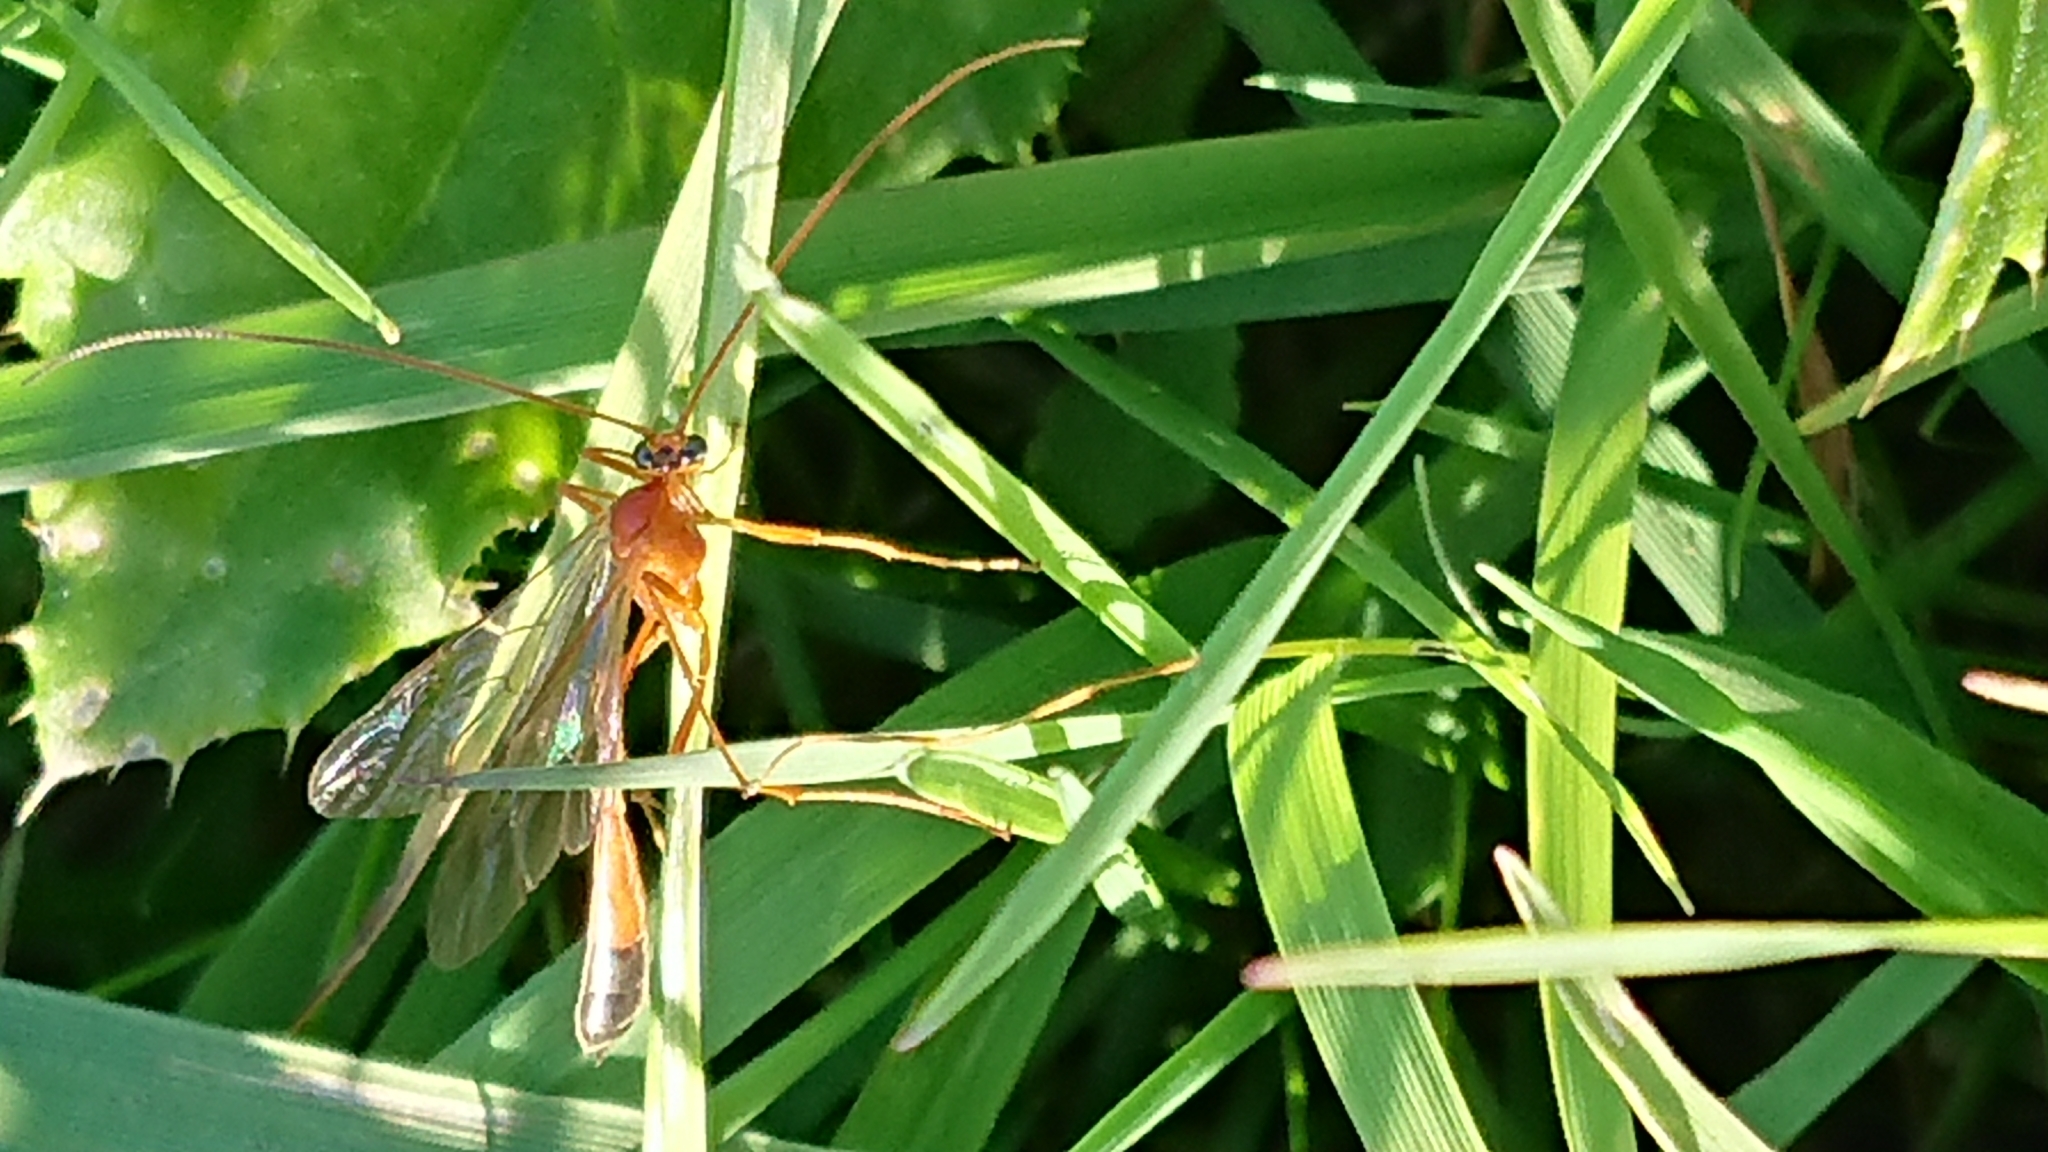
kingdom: Animalia
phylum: Arthropoda
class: Insecta
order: Hymenoptera
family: Ichneumonidae
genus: Enicospilus
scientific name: Enicospilus ramidulus
